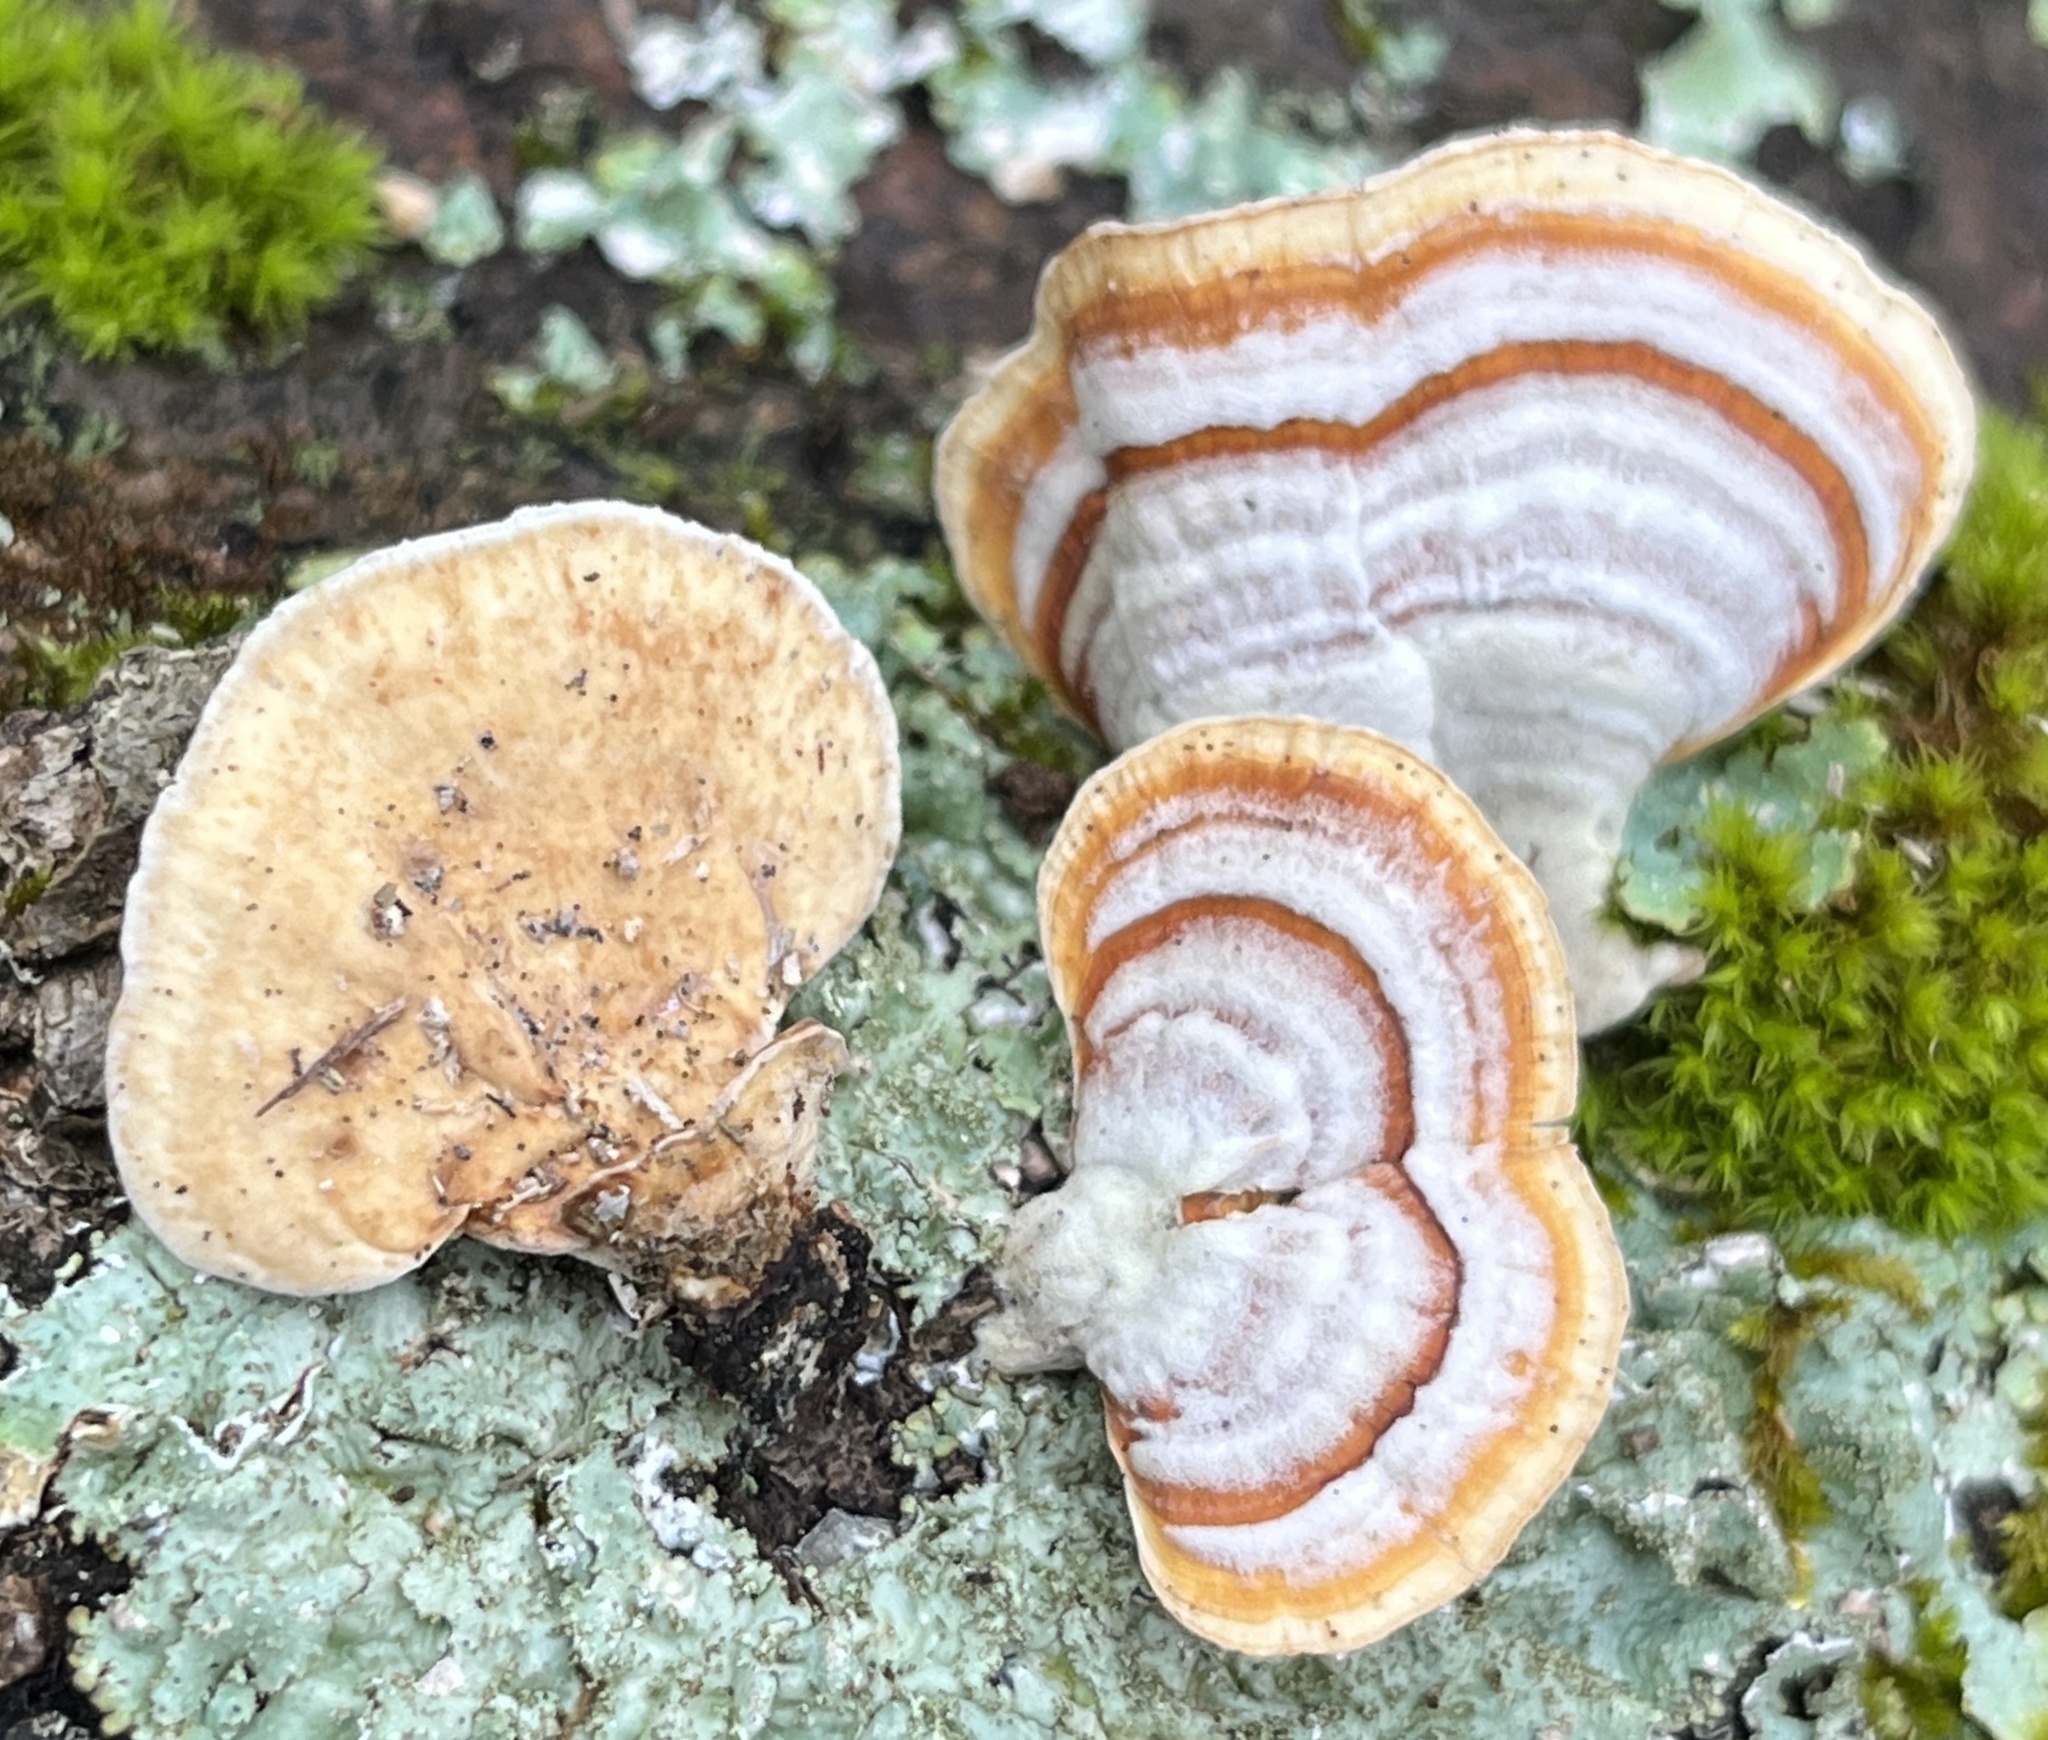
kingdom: Fungi
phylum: Basidiomycota
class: Agaricomycetes
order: Russulales
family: Stereaceae
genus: Stereum
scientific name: Stereum lobatum
